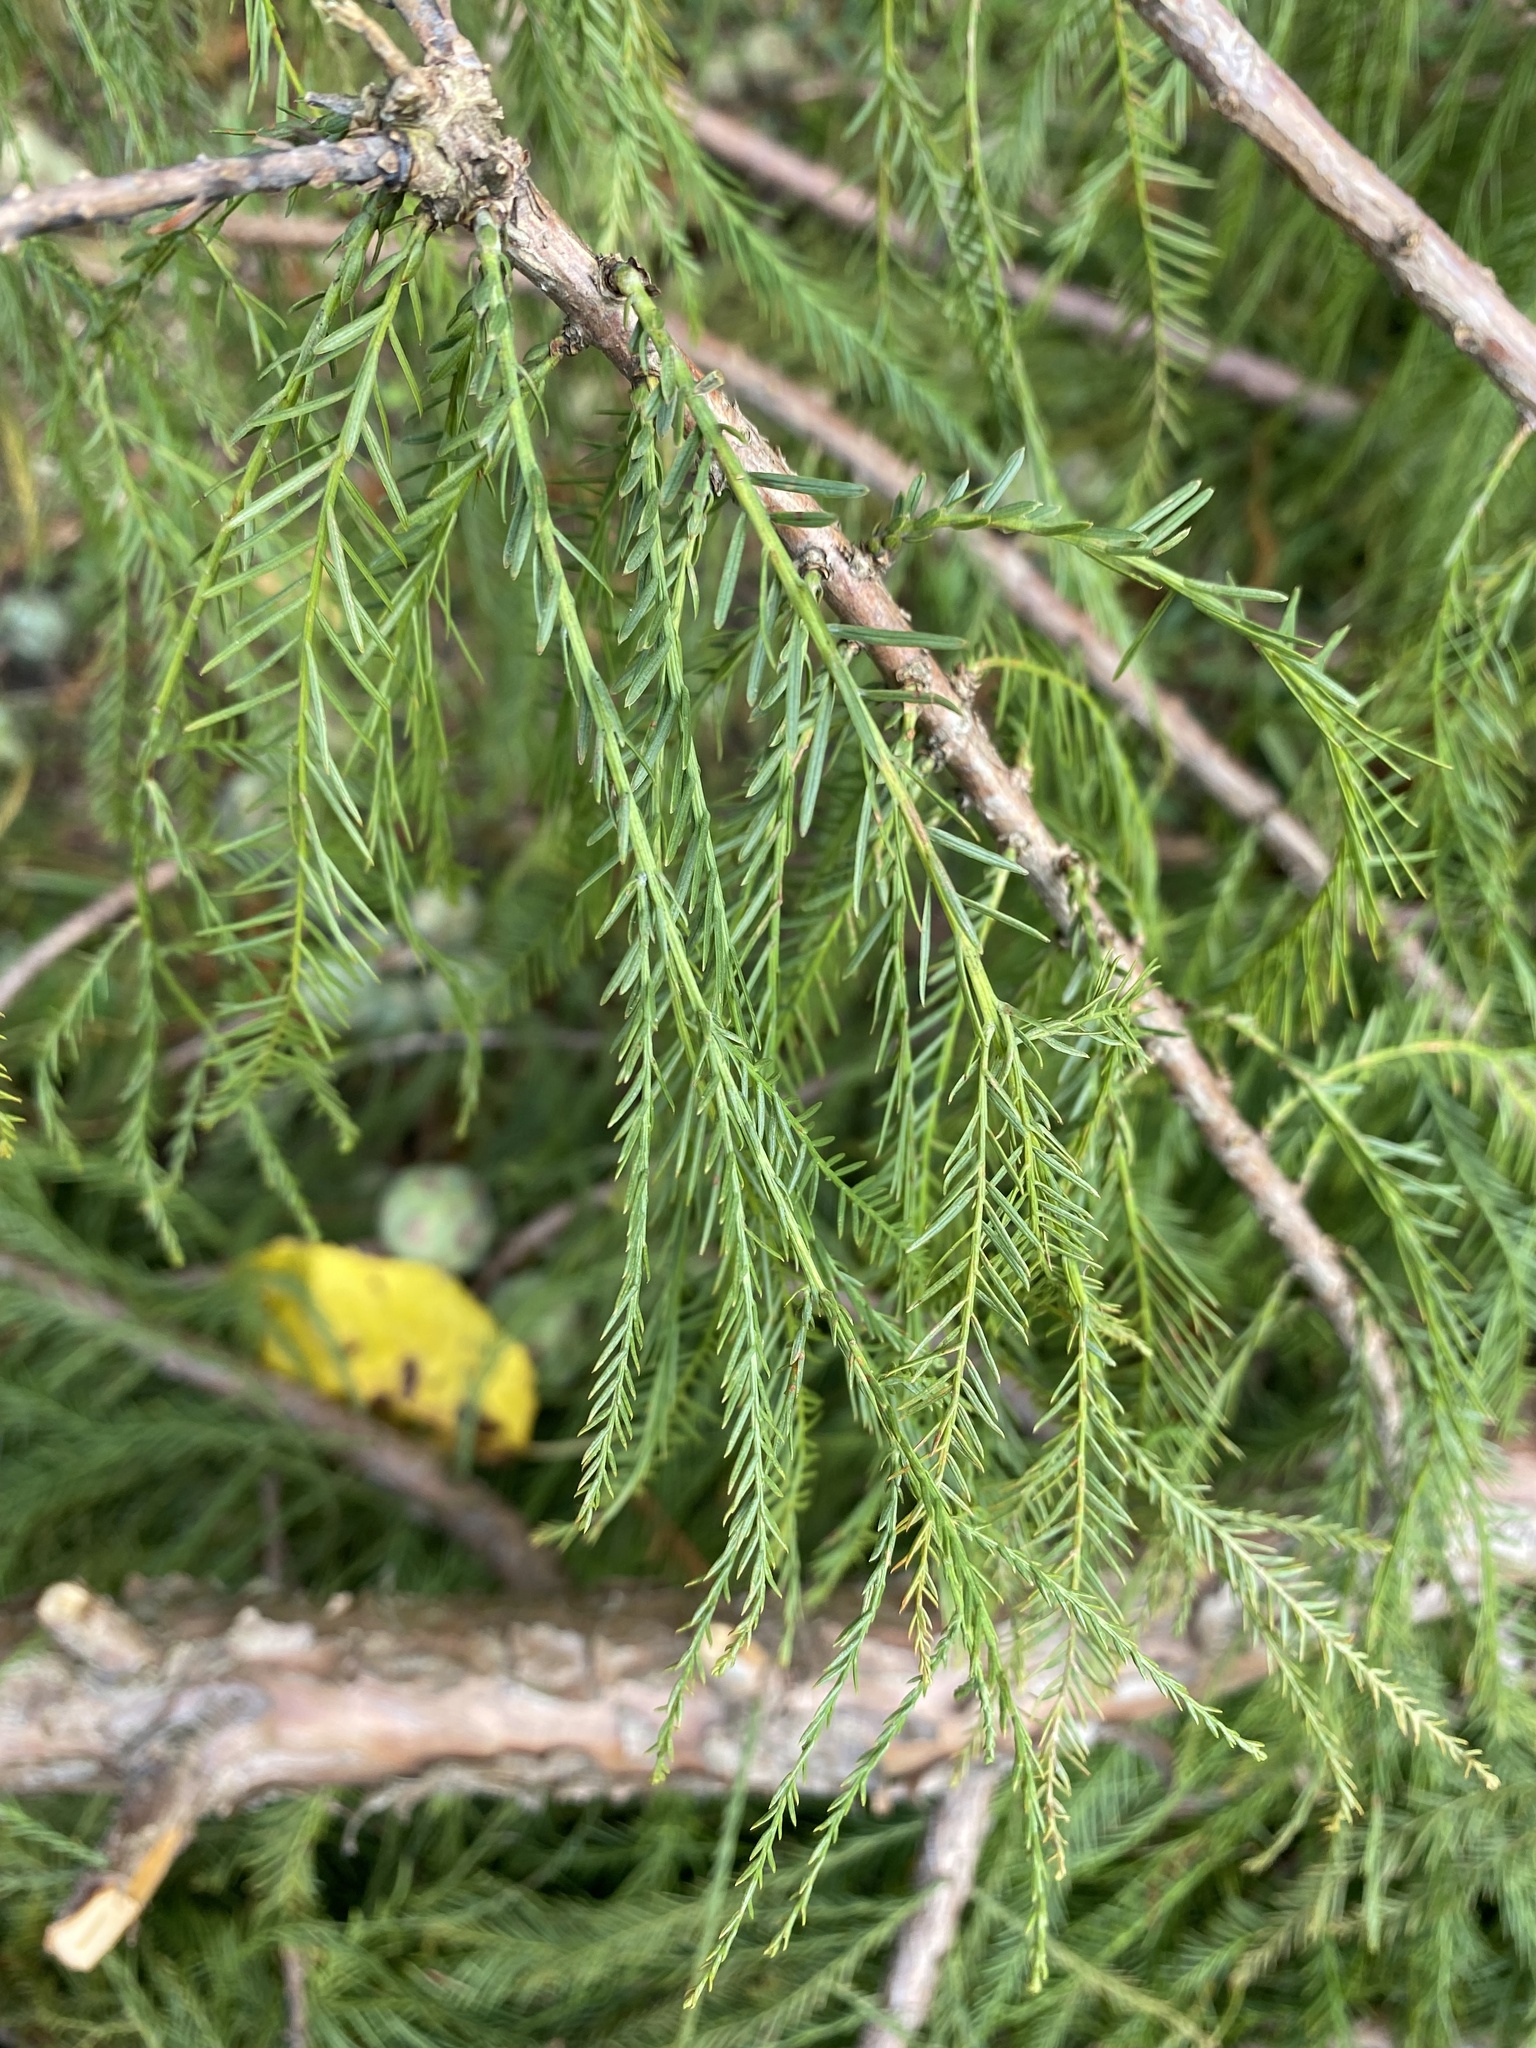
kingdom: Plantae
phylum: Tracheophyta
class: Pinopsida
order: Pinales
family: Cupressaceae
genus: Taxodium
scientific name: Taxodium distichum
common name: Bald cypress
